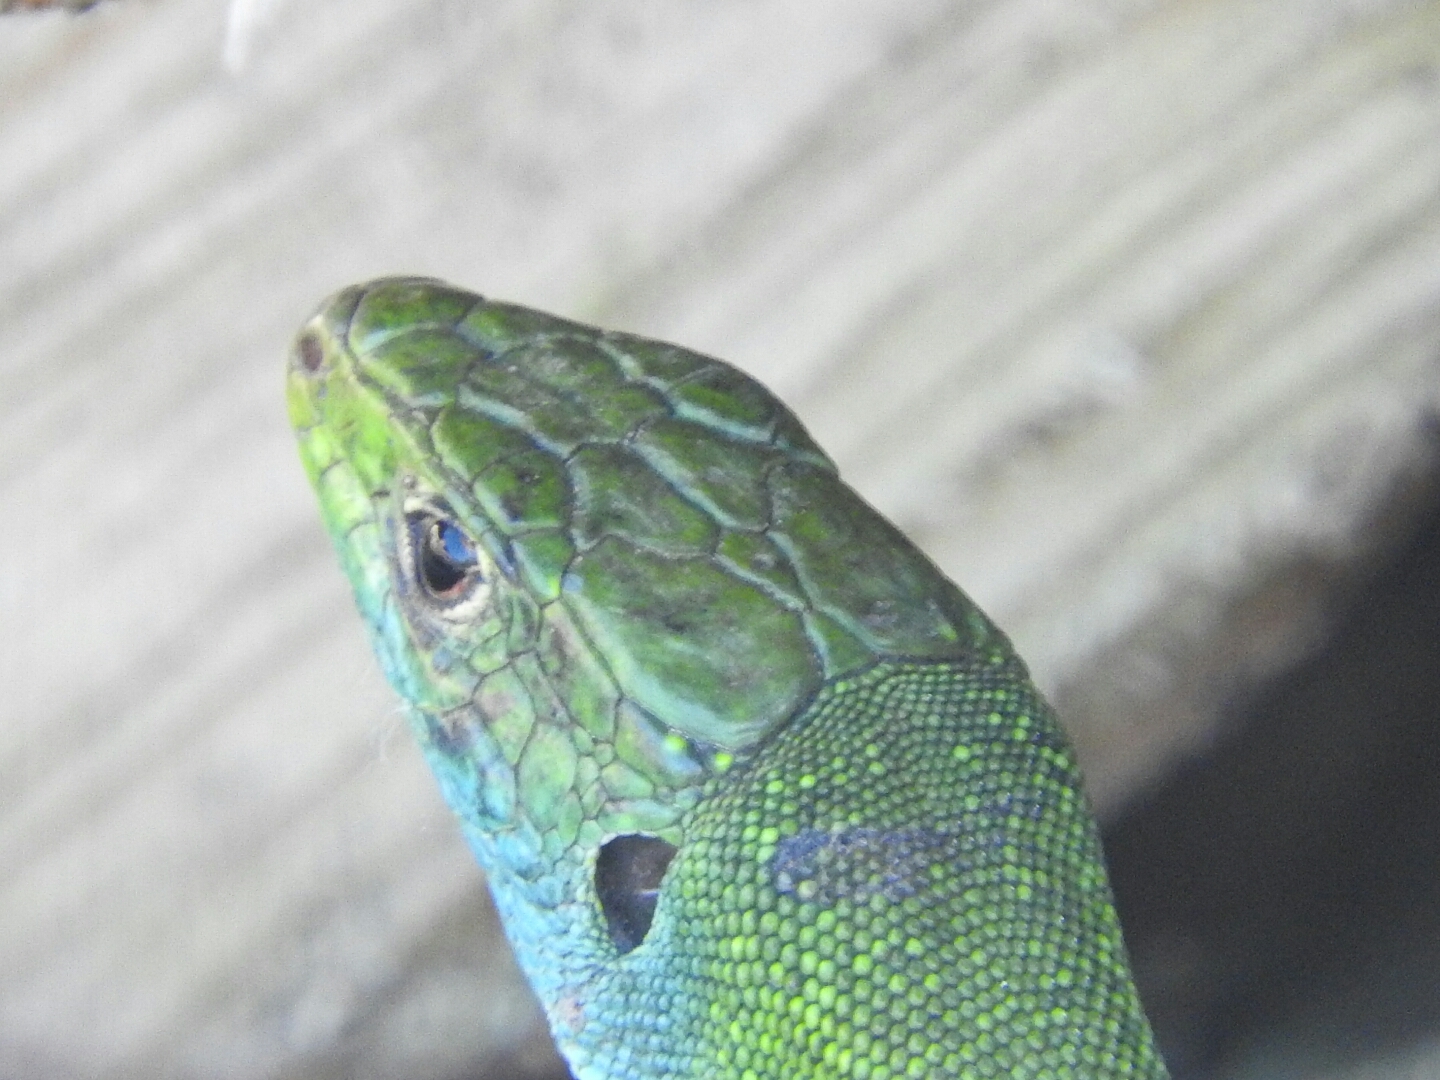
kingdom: Animalia
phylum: Chordata
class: Squamata
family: Lacertidae
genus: Lacerta
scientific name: Lacerta bilineata
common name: Western green lizard
